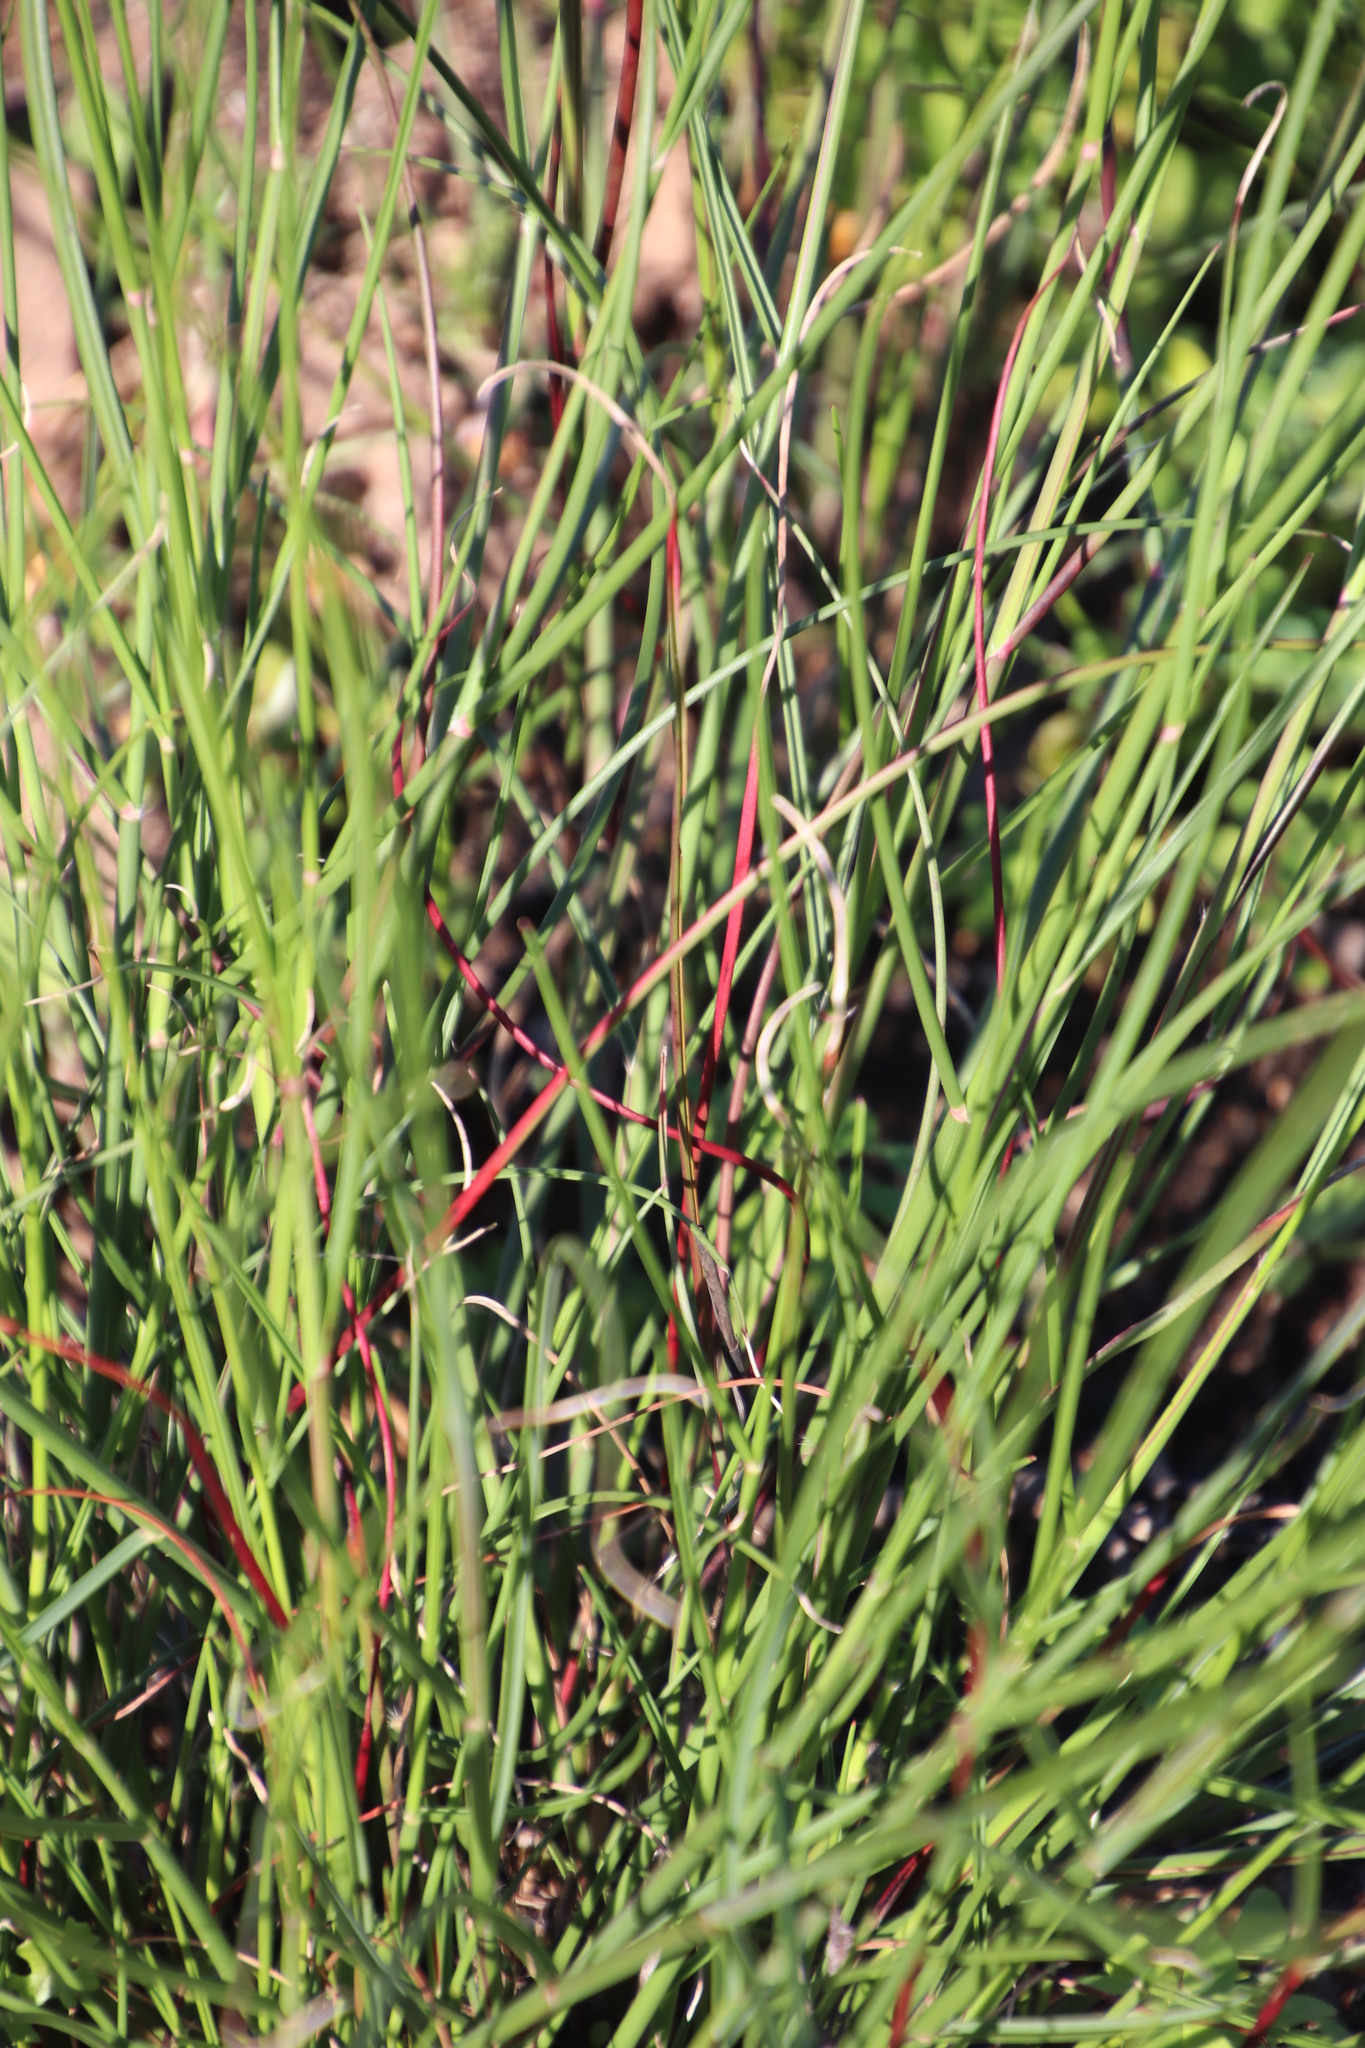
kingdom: Plantae
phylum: Tracheophyta
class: Liliopsida
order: Poales
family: Poaceae
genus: Tribolium
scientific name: Tribolium uniolae
